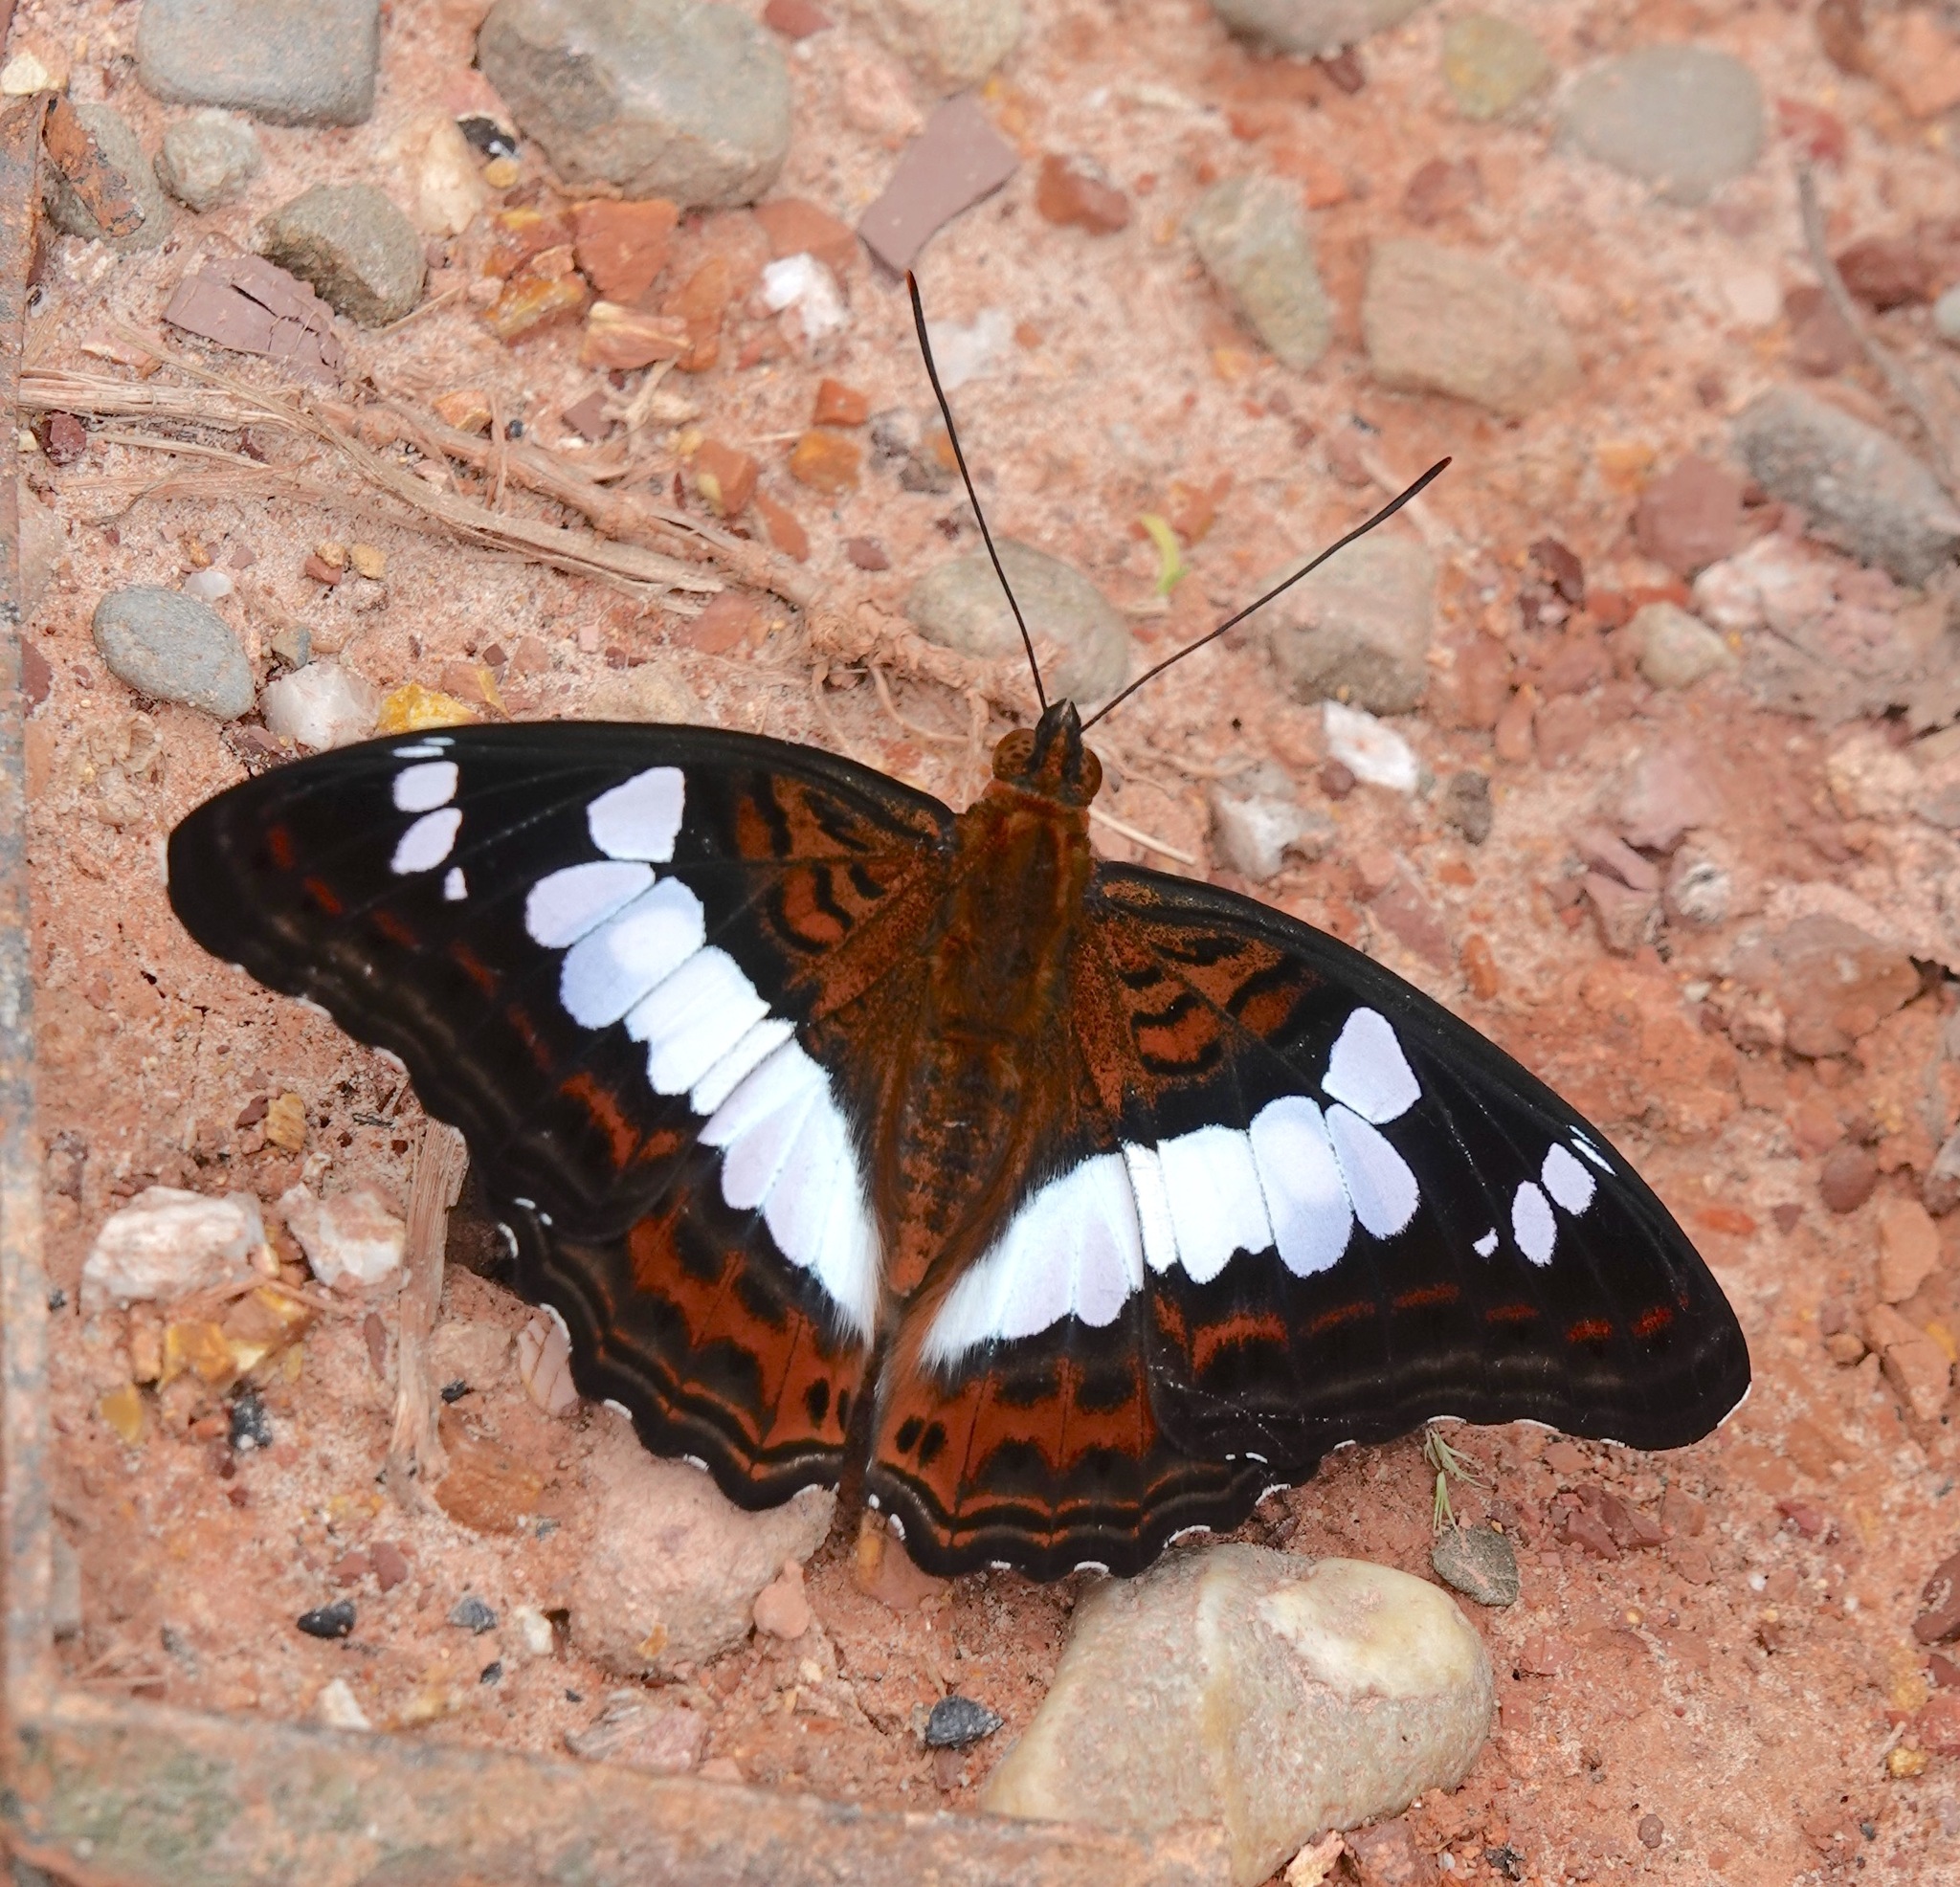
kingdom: Animalia
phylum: Arthropoda
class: Insecta
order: Lepidoptera
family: Nymphalidae
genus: Limenitis
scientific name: Limenitis Moduza procris
